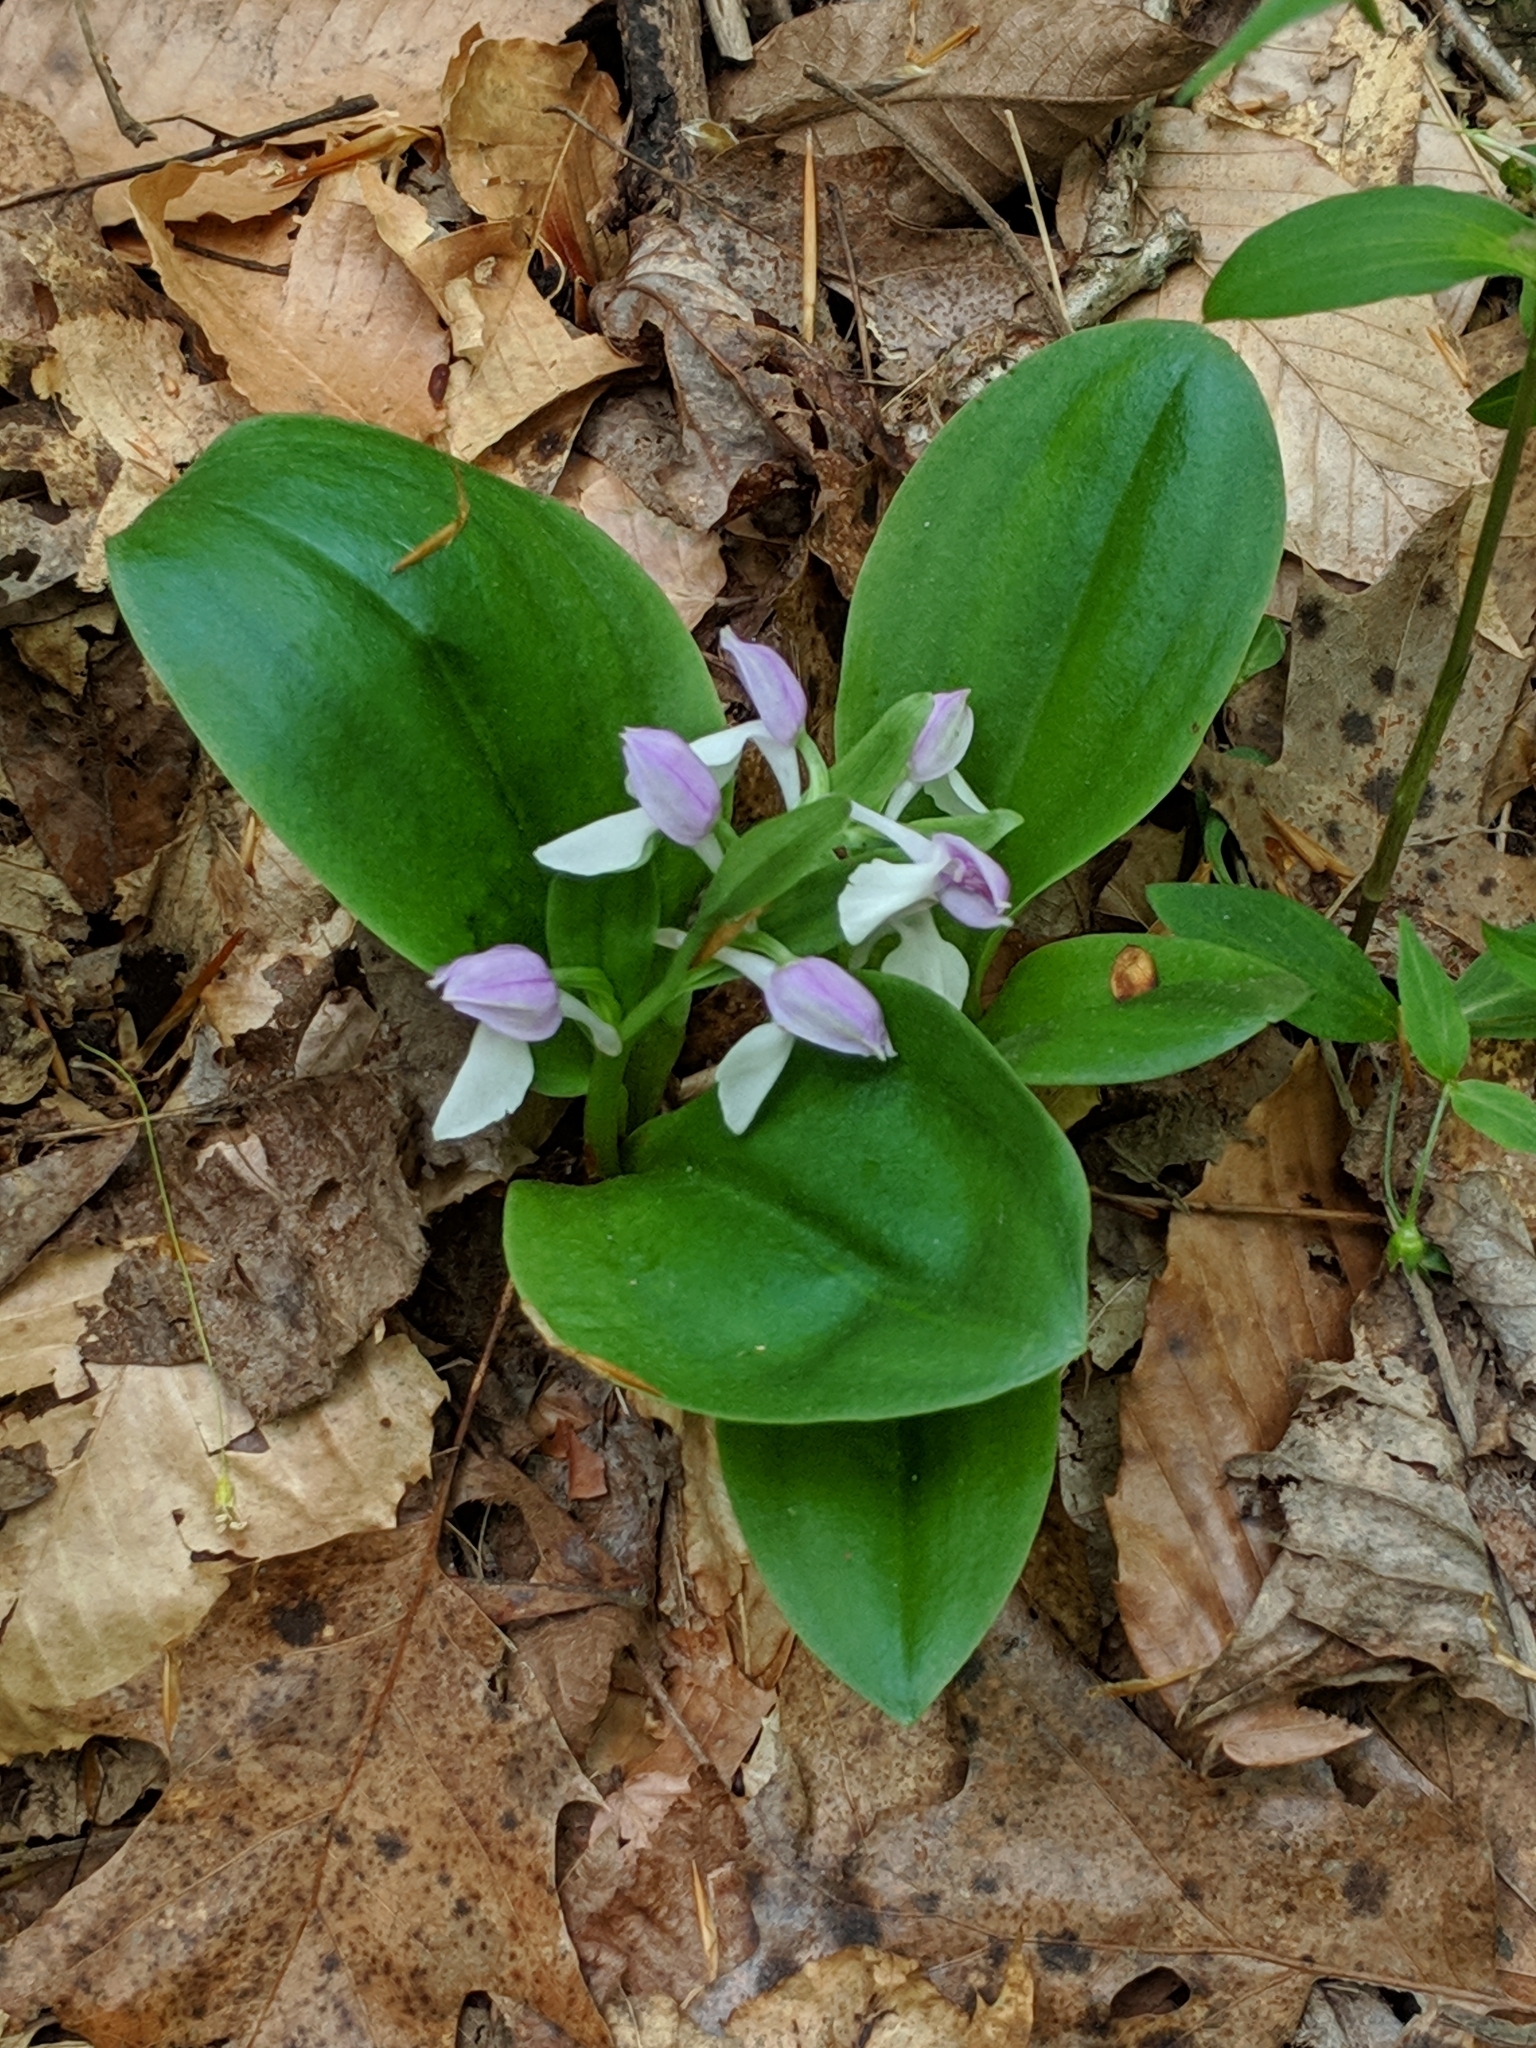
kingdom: Plantae
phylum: Tracheophyta
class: Liliopsida
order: Asparagales
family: Orchidaceae
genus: Galearis
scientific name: Galearis spectabilis
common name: Purple-hooded orchis
